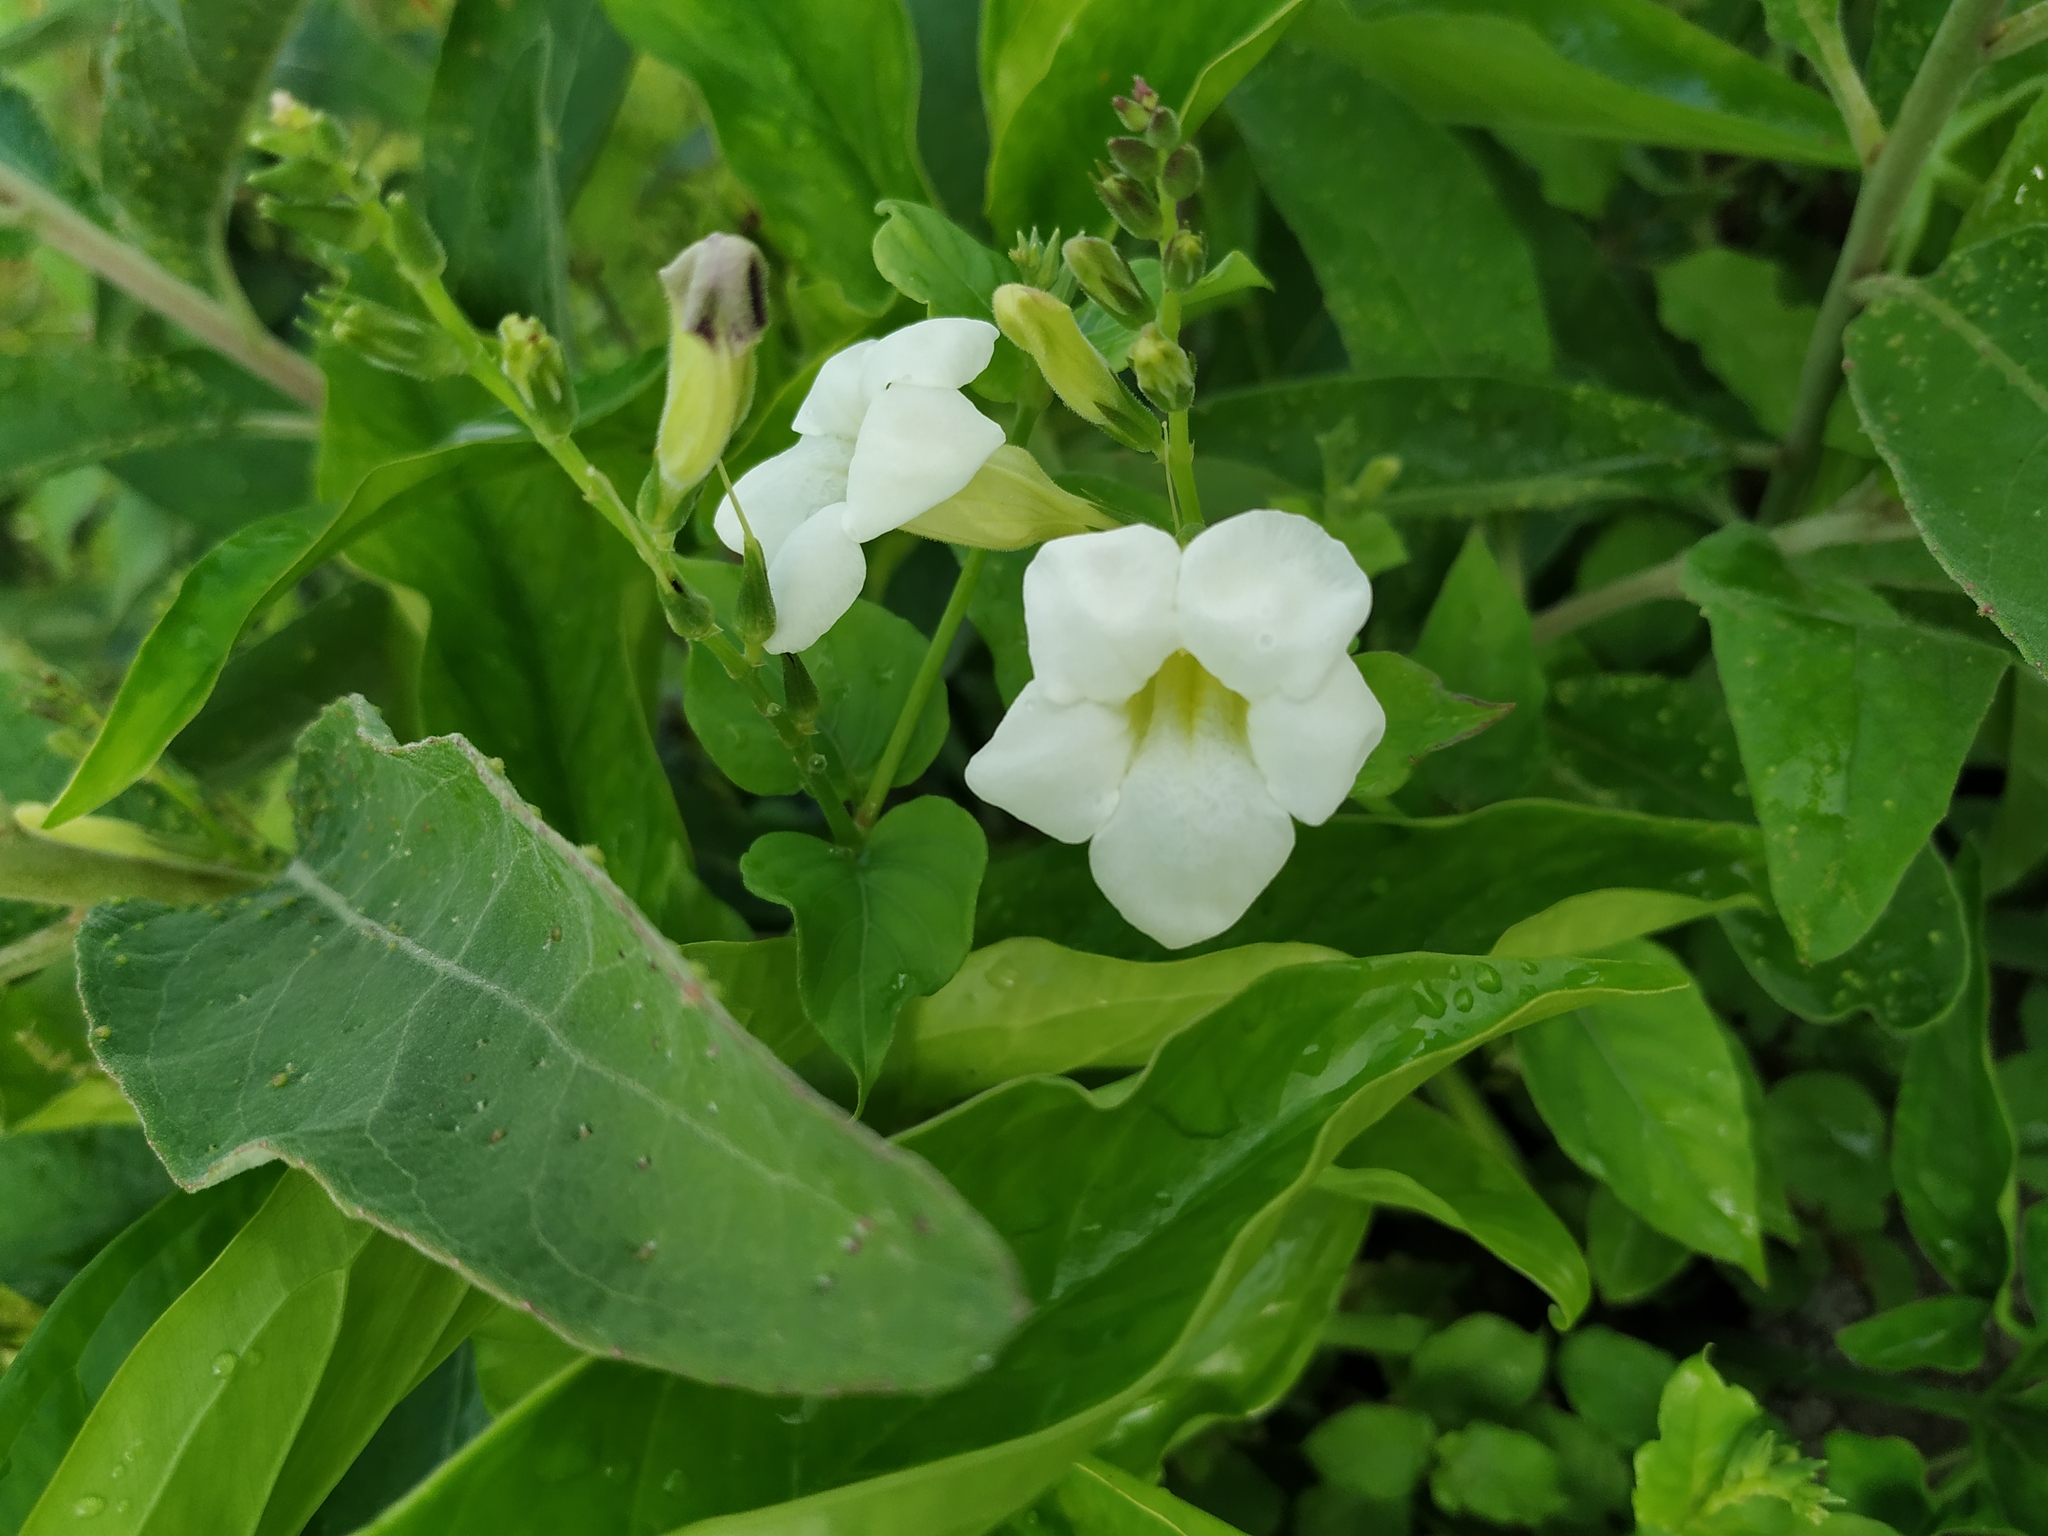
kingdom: Plantae
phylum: Tracheophyta
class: Magnoliopsida
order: Lamiales
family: Acanthaceae
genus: Asystasia
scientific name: Asystasia gangetica
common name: Chinese violet
